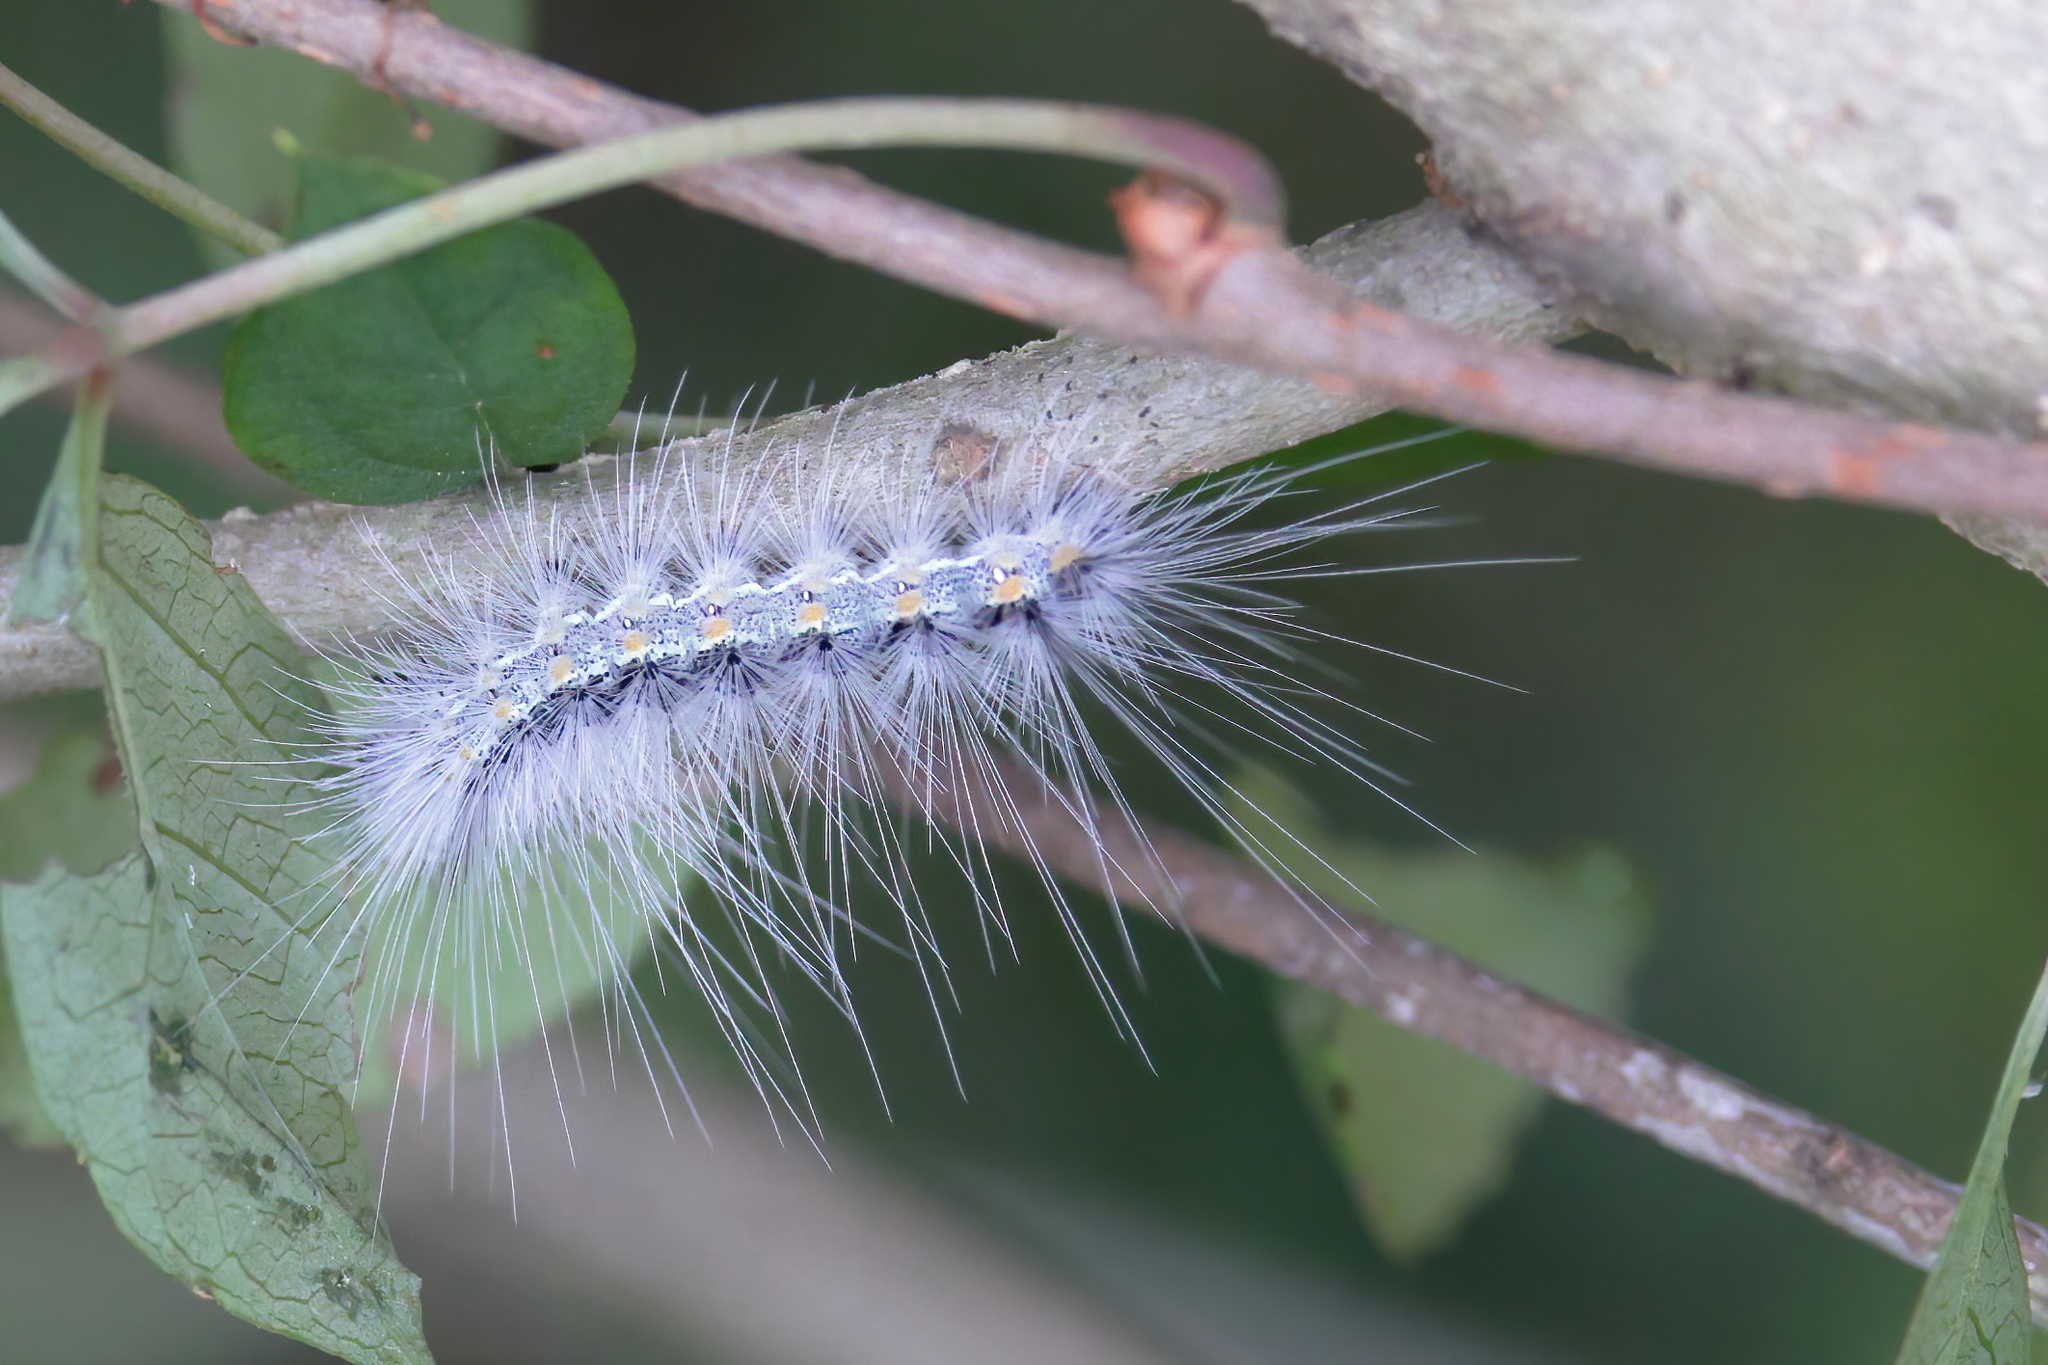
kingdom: Animalia
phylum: Arthropoda
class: Insecta
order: Lepidoptera
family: Erebidae
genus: Hyphantria
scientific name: Hyphantria cunea
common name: American white moth
